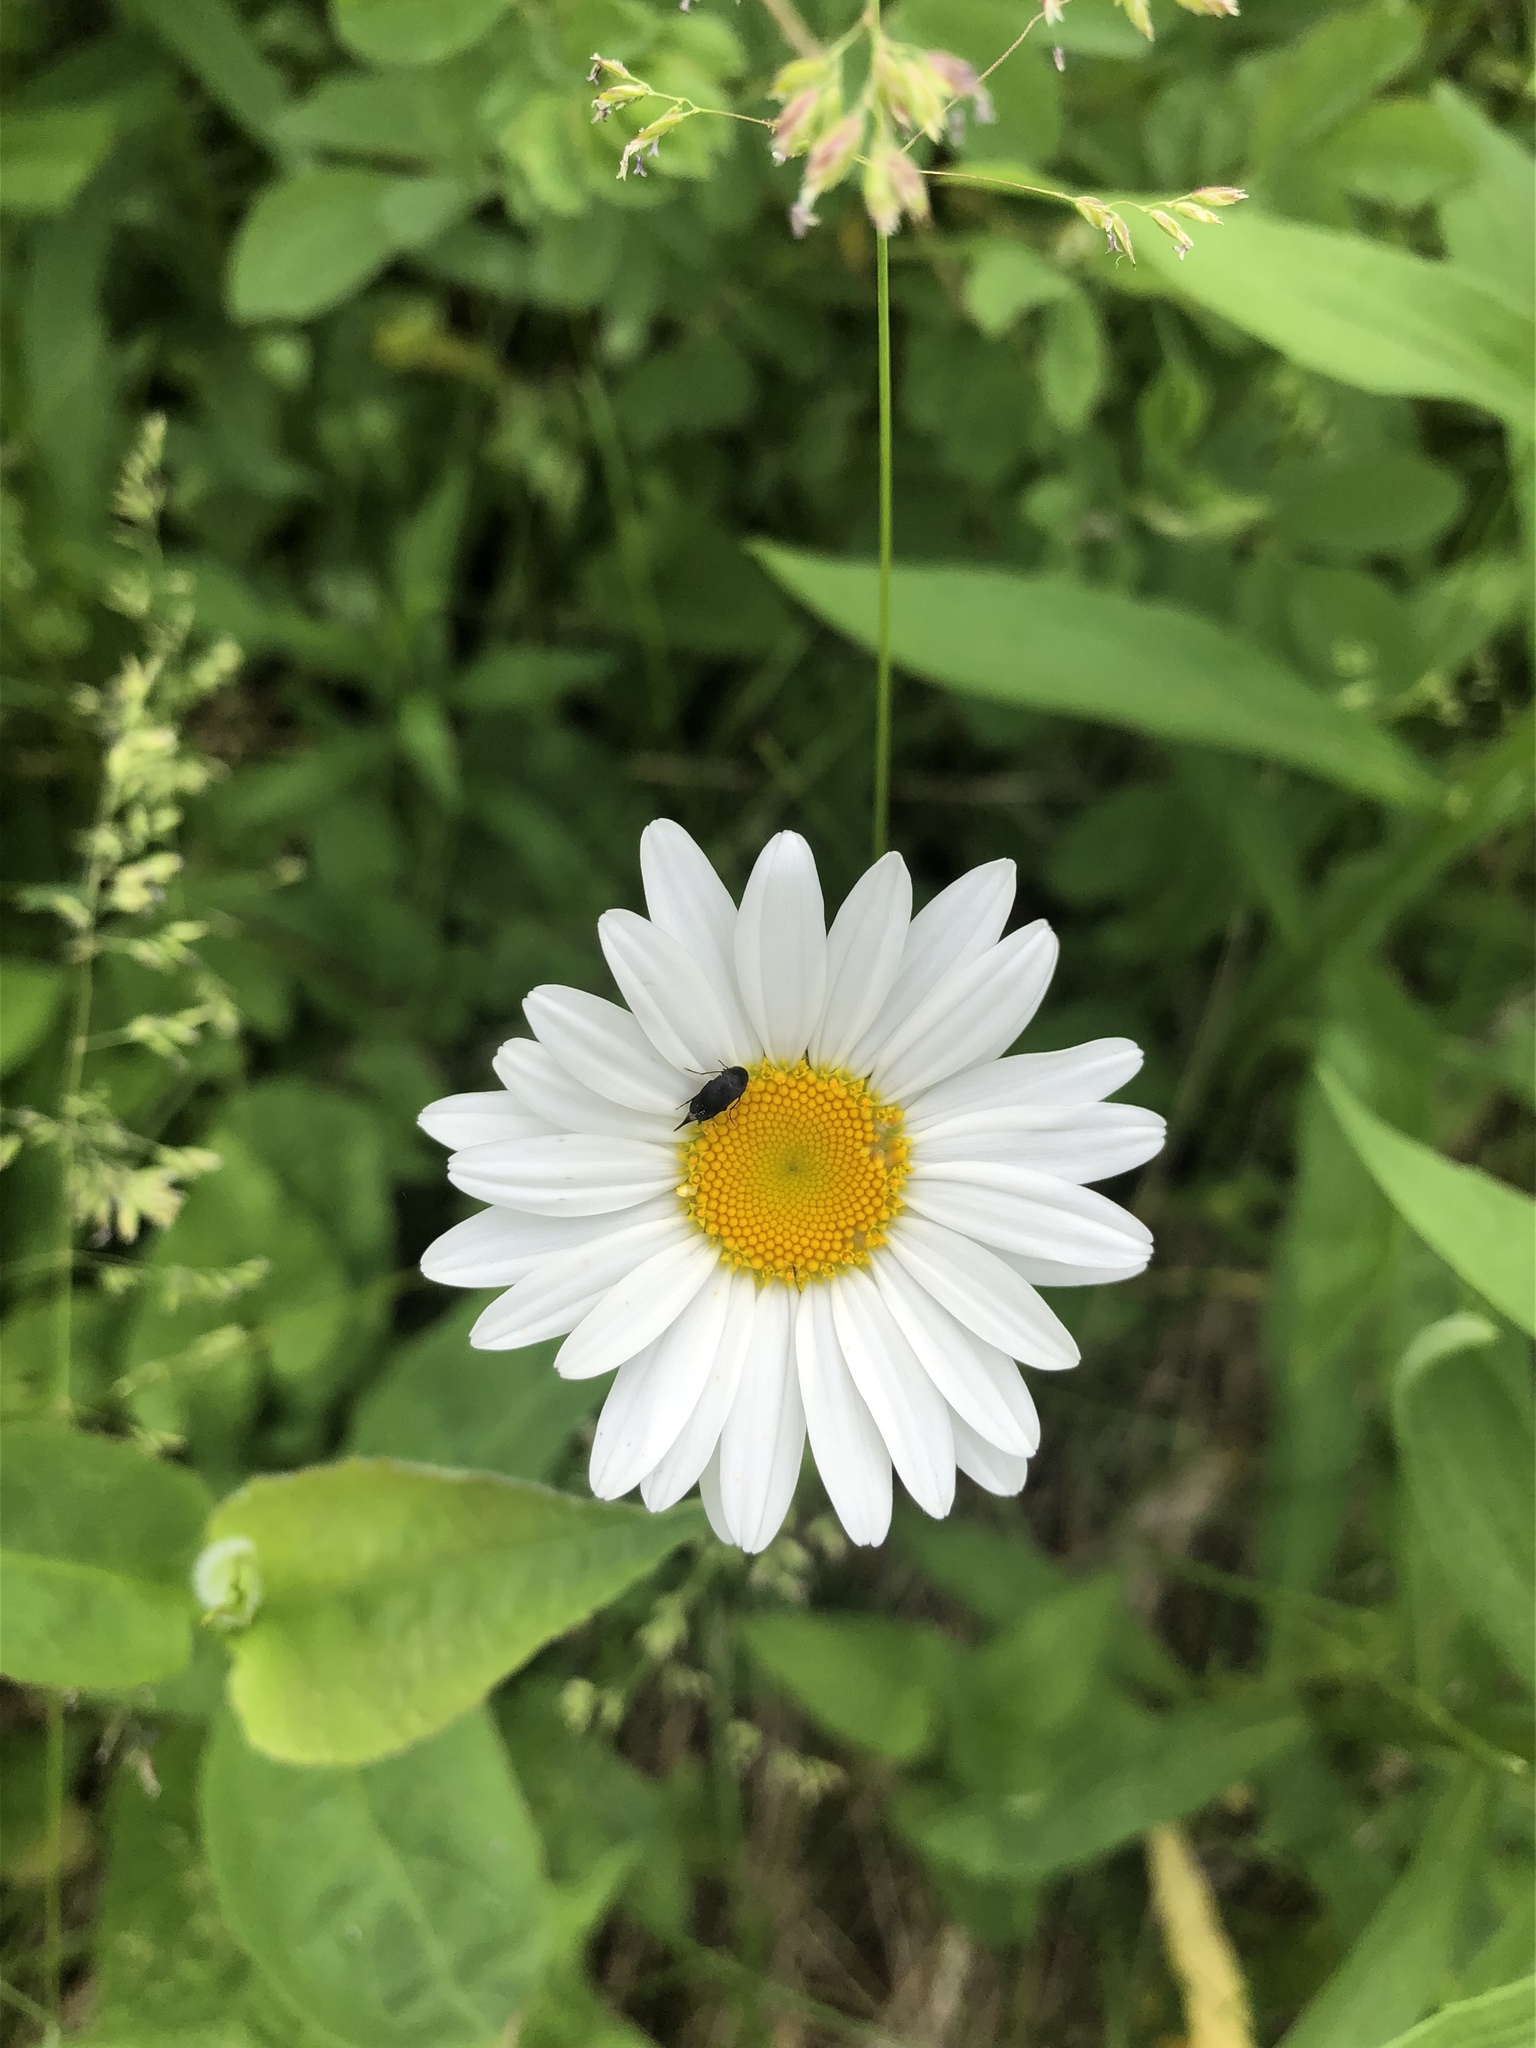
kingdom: Plantae
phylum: Tracheophyta
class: Magnoliopsida
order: Asterales
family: Asteraceae
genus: Leucanthemum
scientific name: Leucanthemum vulgare
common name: Oxeye daisy
